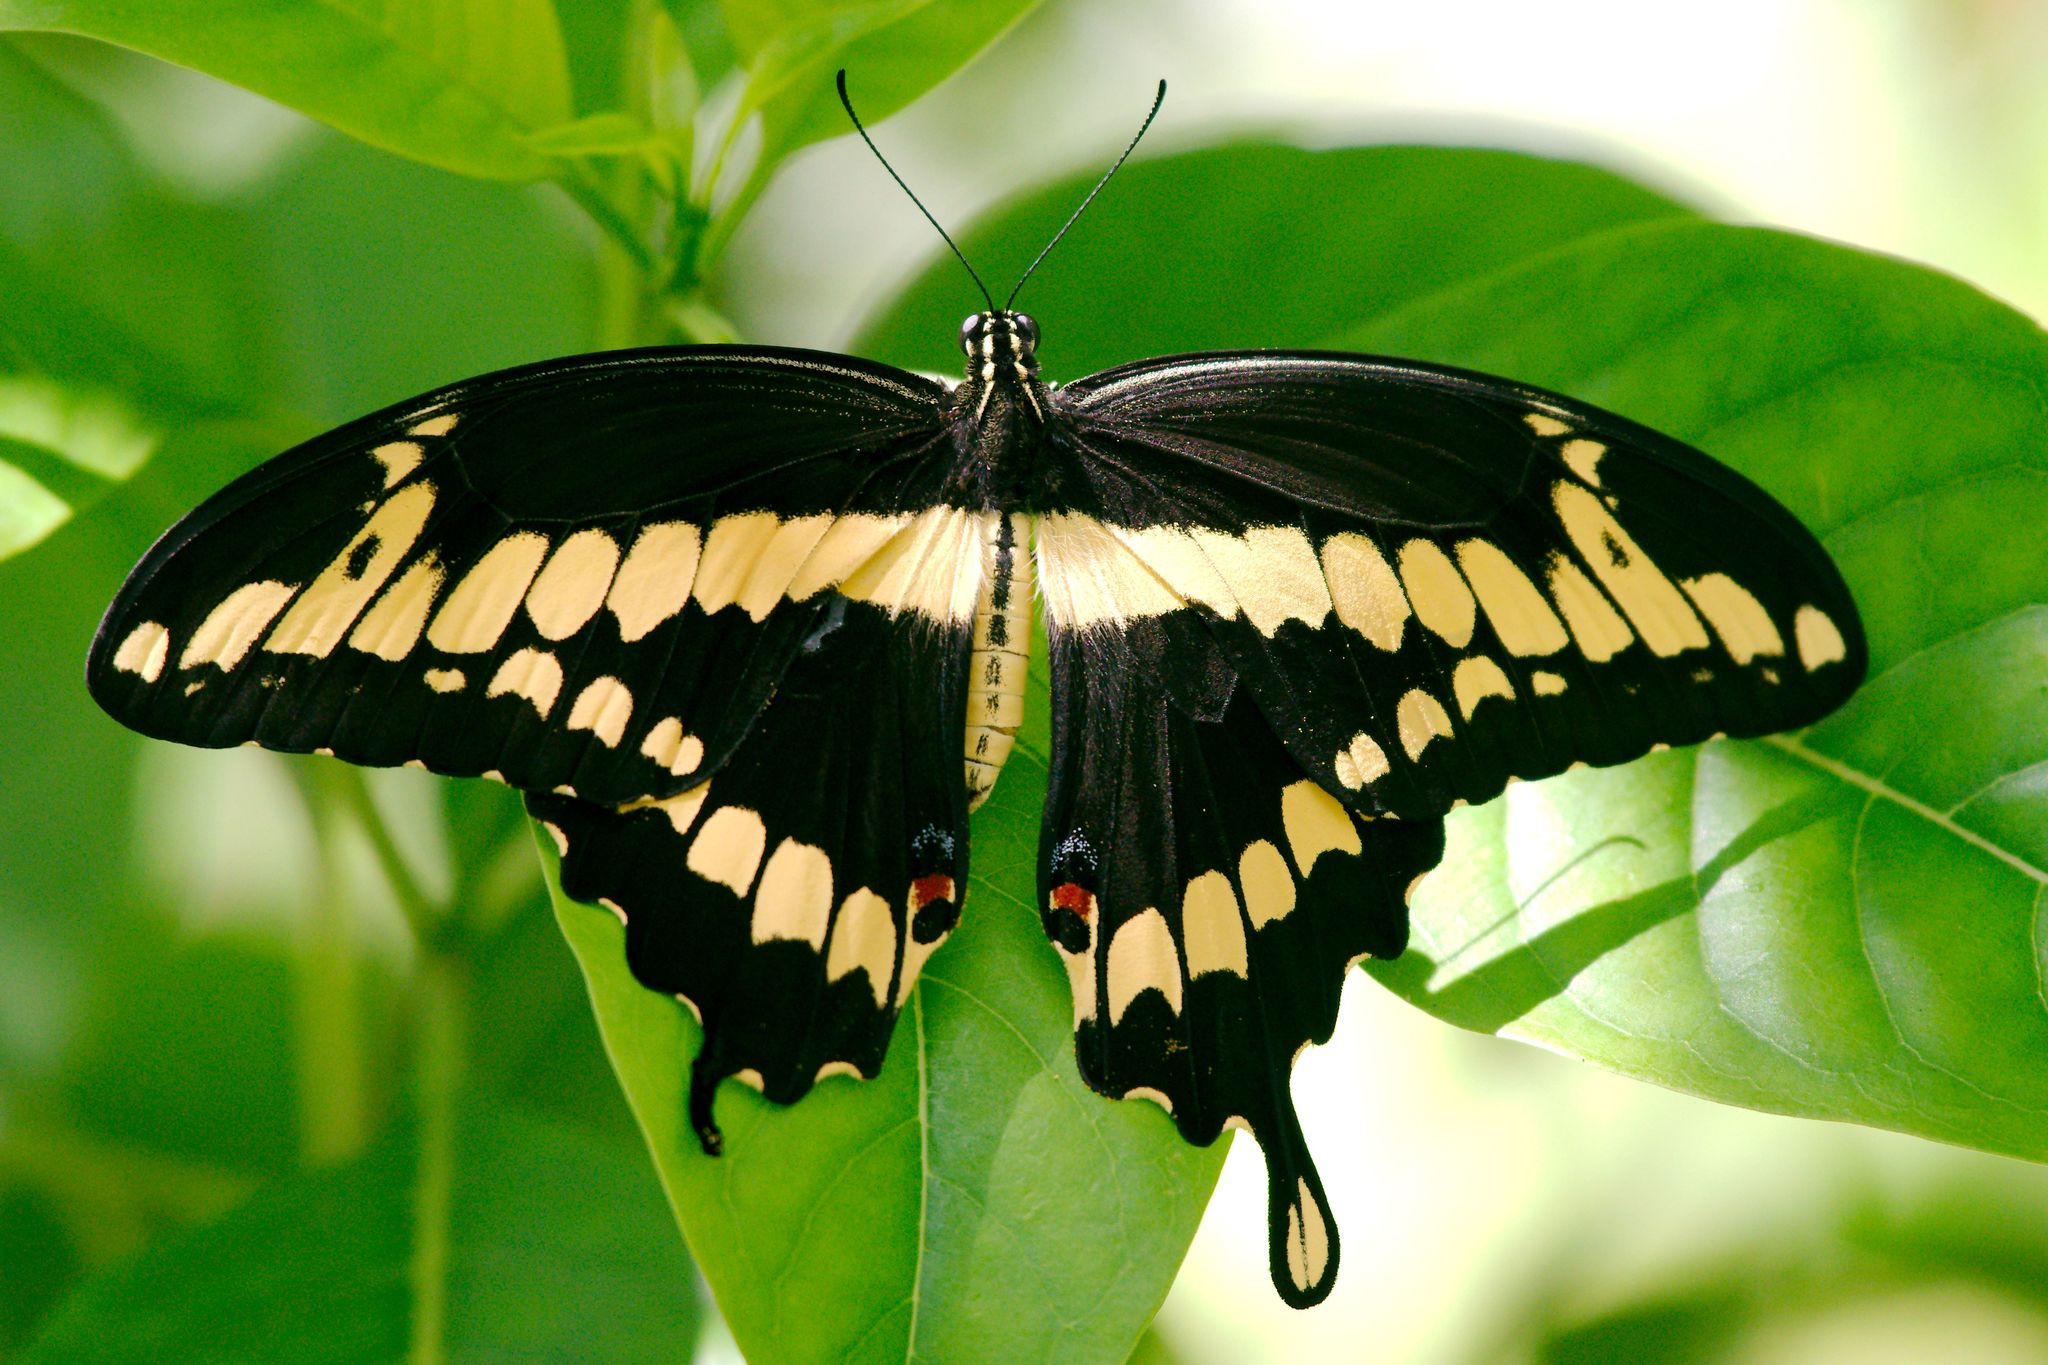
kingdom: Animalia
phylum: Arthropoda
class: Insecta
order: Lepidoptera
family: Papilionidae
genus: Papilio
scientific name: Papilio cresphontes
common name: Giant swallowtail
